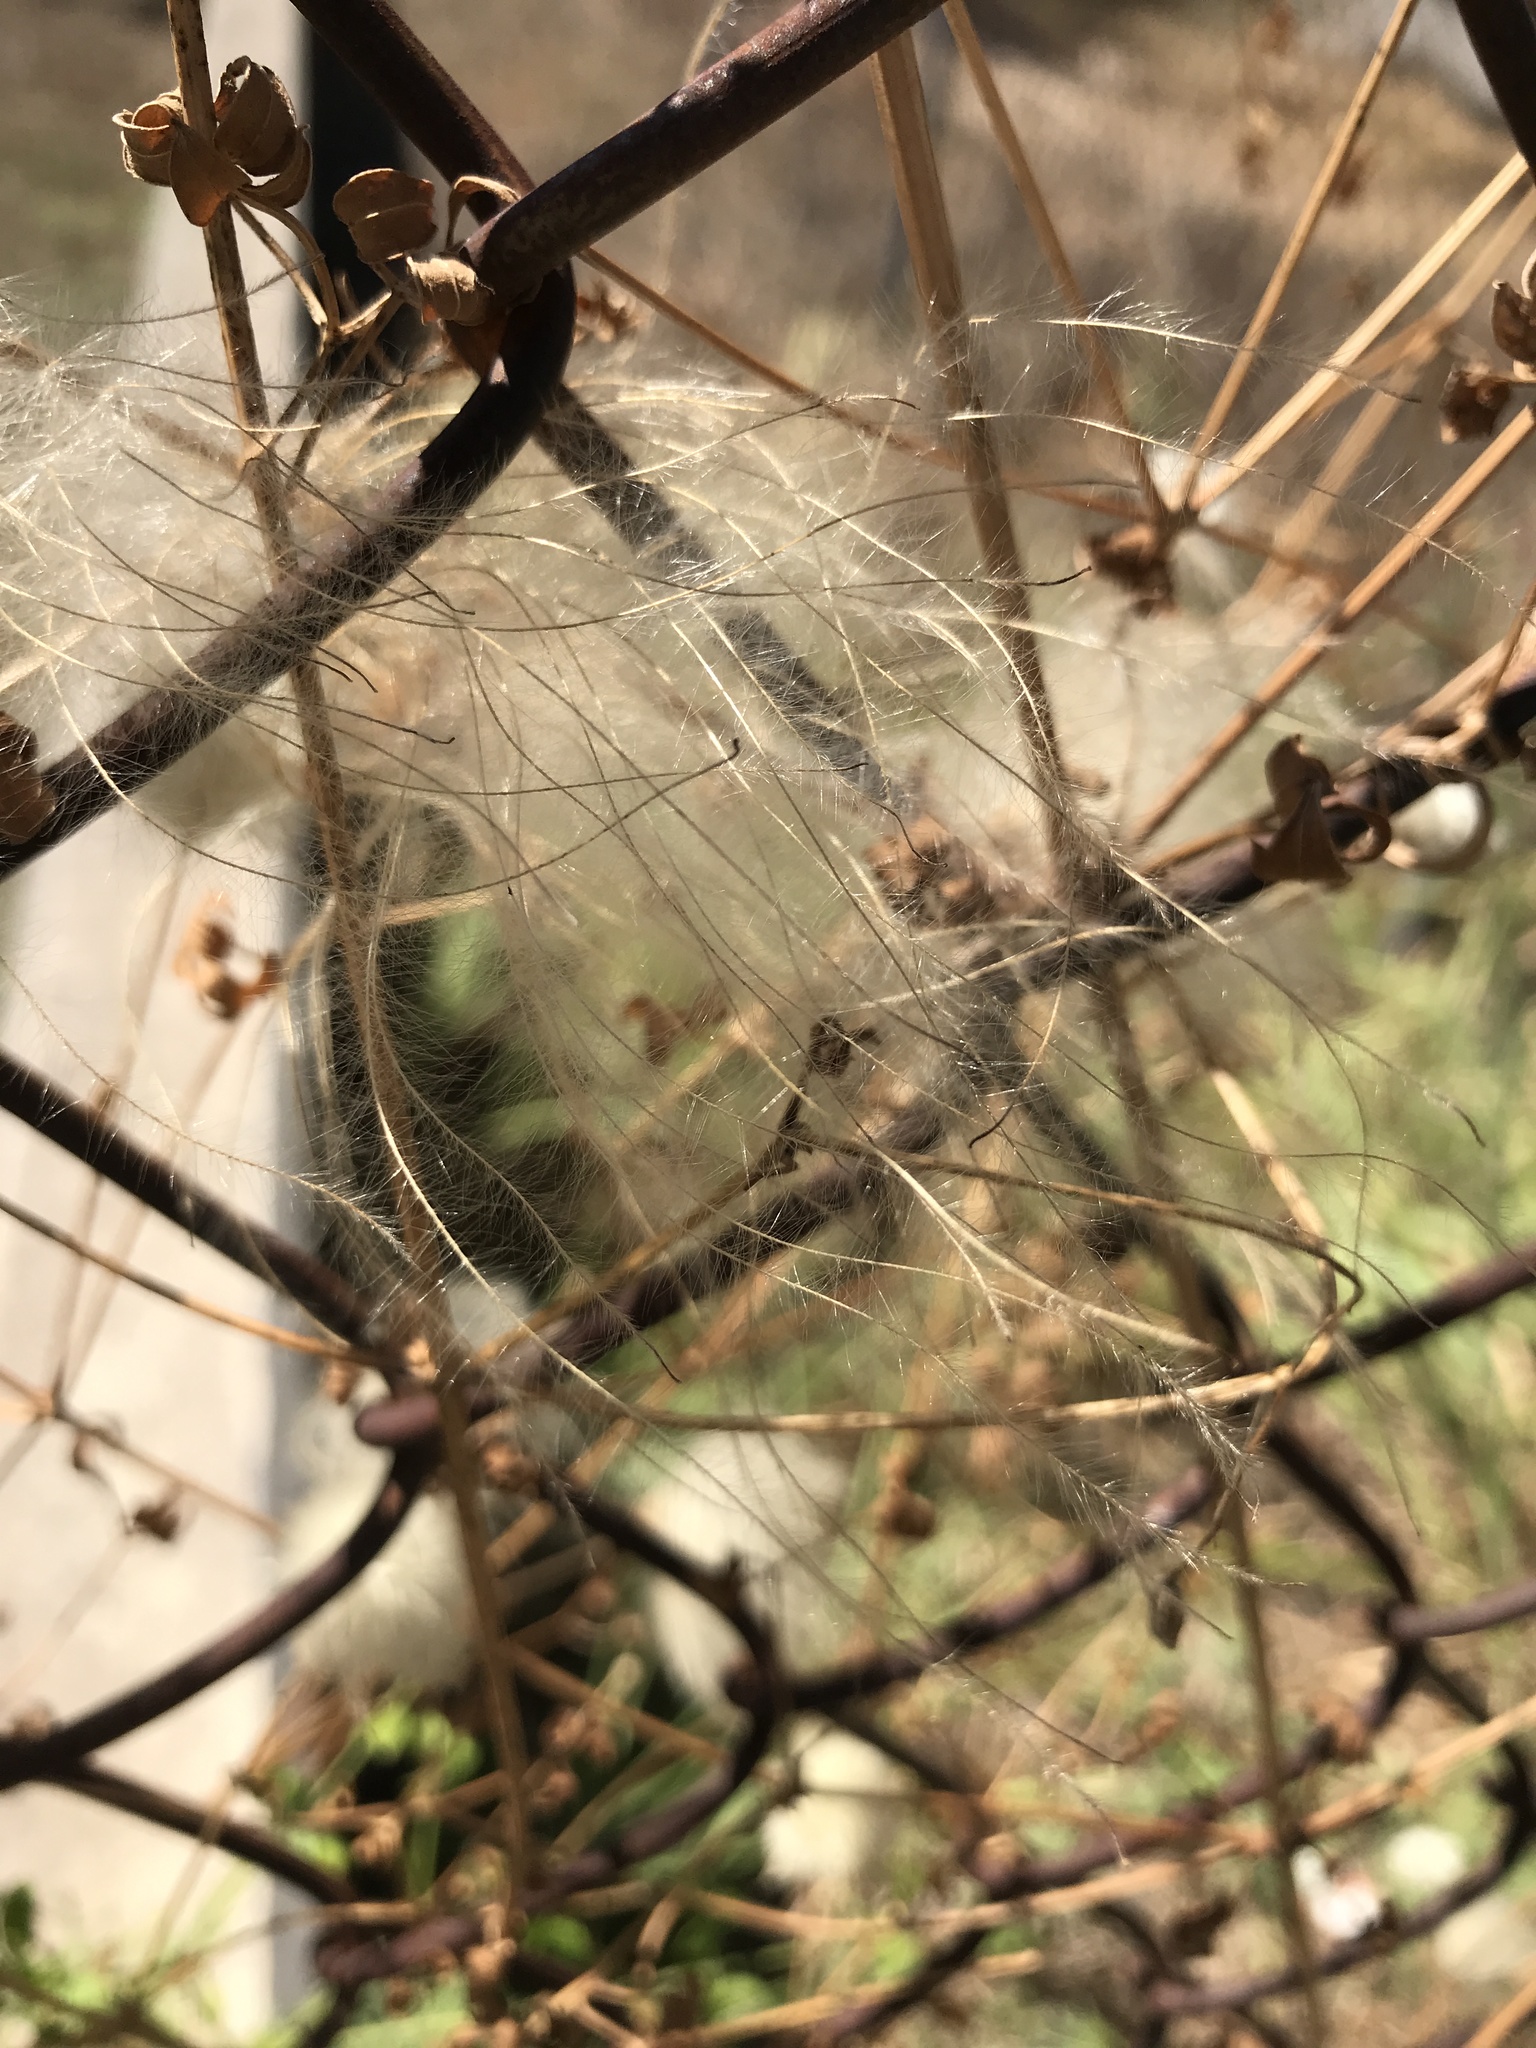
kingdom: Plantae
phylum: Tracheophyta
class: Magnoliopsida
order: Ranunculales
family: Ranunculaceae
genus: Clematis
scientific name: Clematis drummondii
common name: Texas virgin's bower
